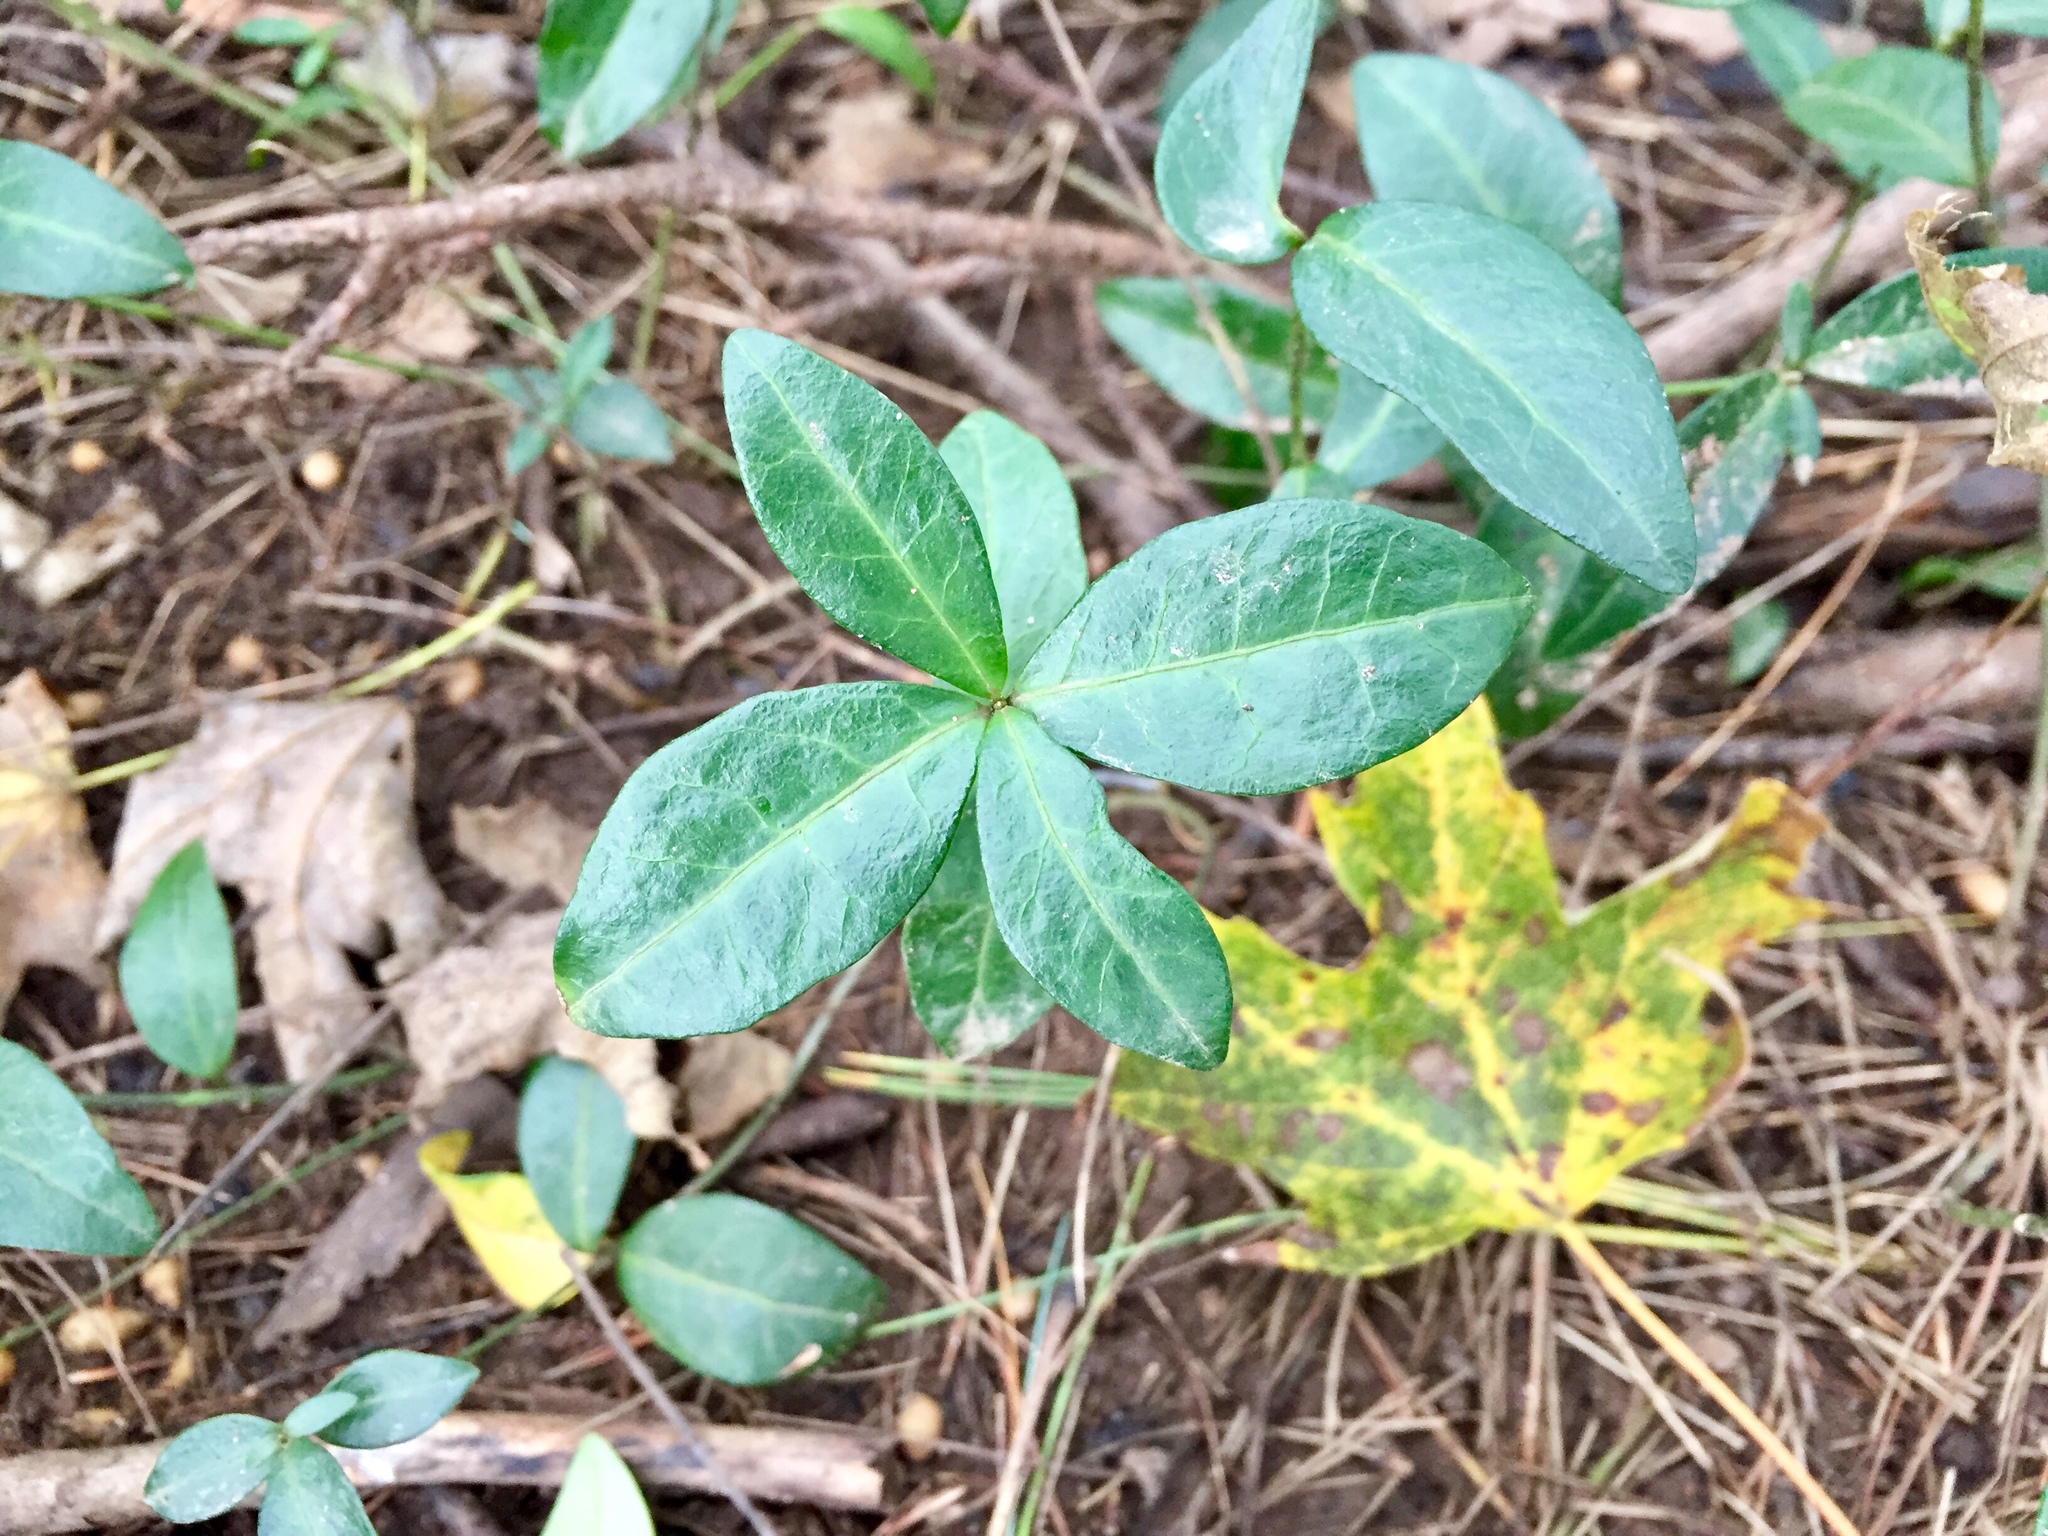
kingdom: Plantae
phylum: Tracheophyta
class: Magnoliopsida
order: Gentianales
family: Apocynaceae
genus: Vinca
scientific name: Vinca minor
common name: Lesser periwinkle
